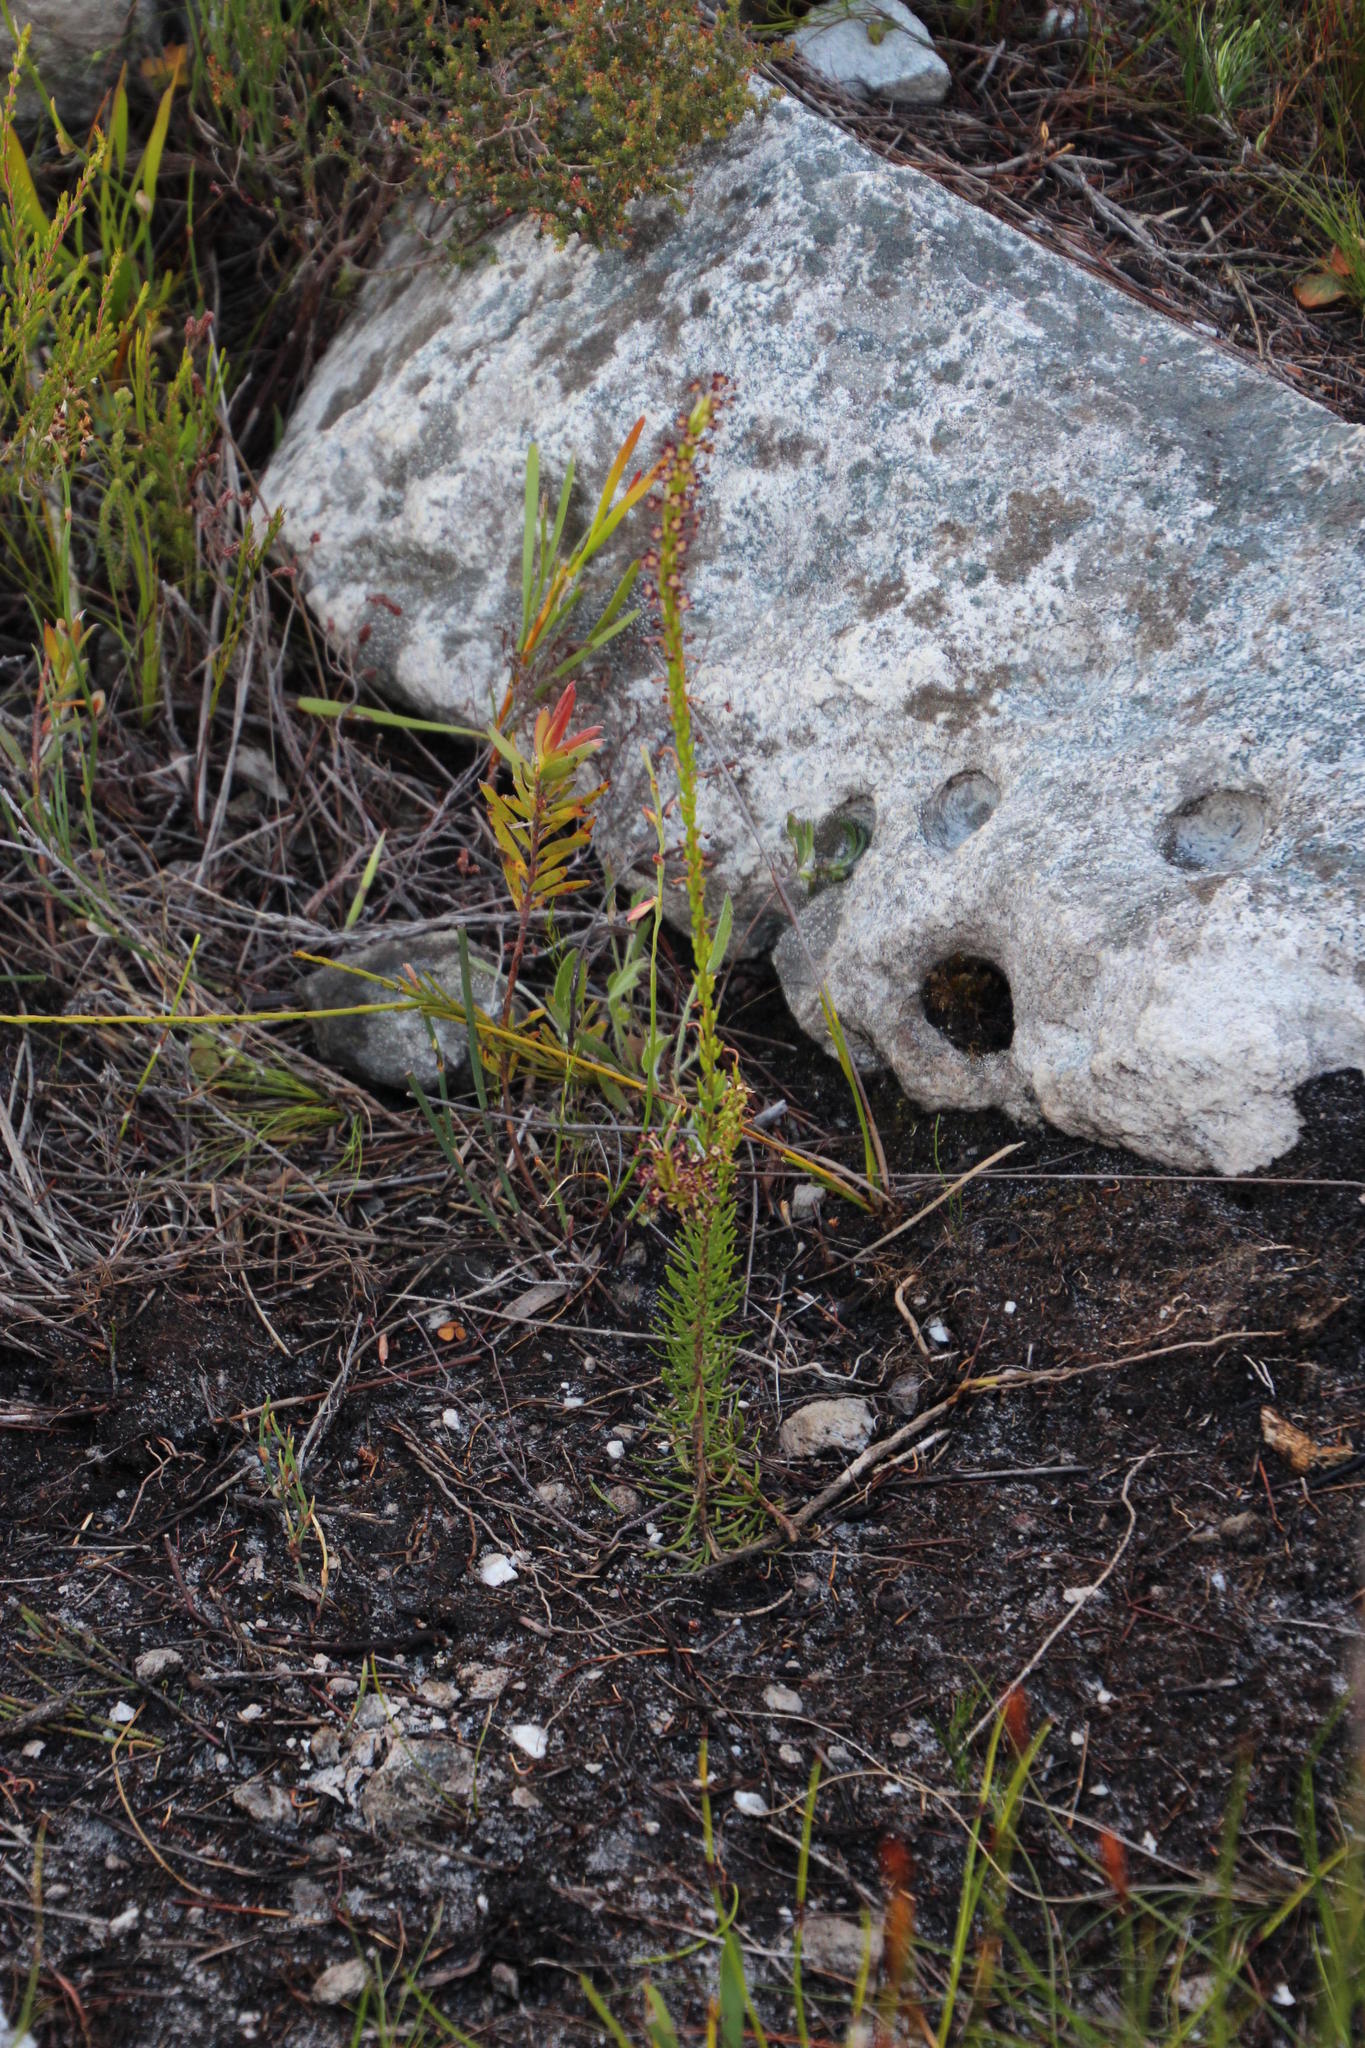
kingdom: Plantae
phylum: Tracheophyta
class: Magnoliopsida
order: Lamiales
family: Scrophulariaceae
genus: Microdon
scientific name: Microdon dubius
